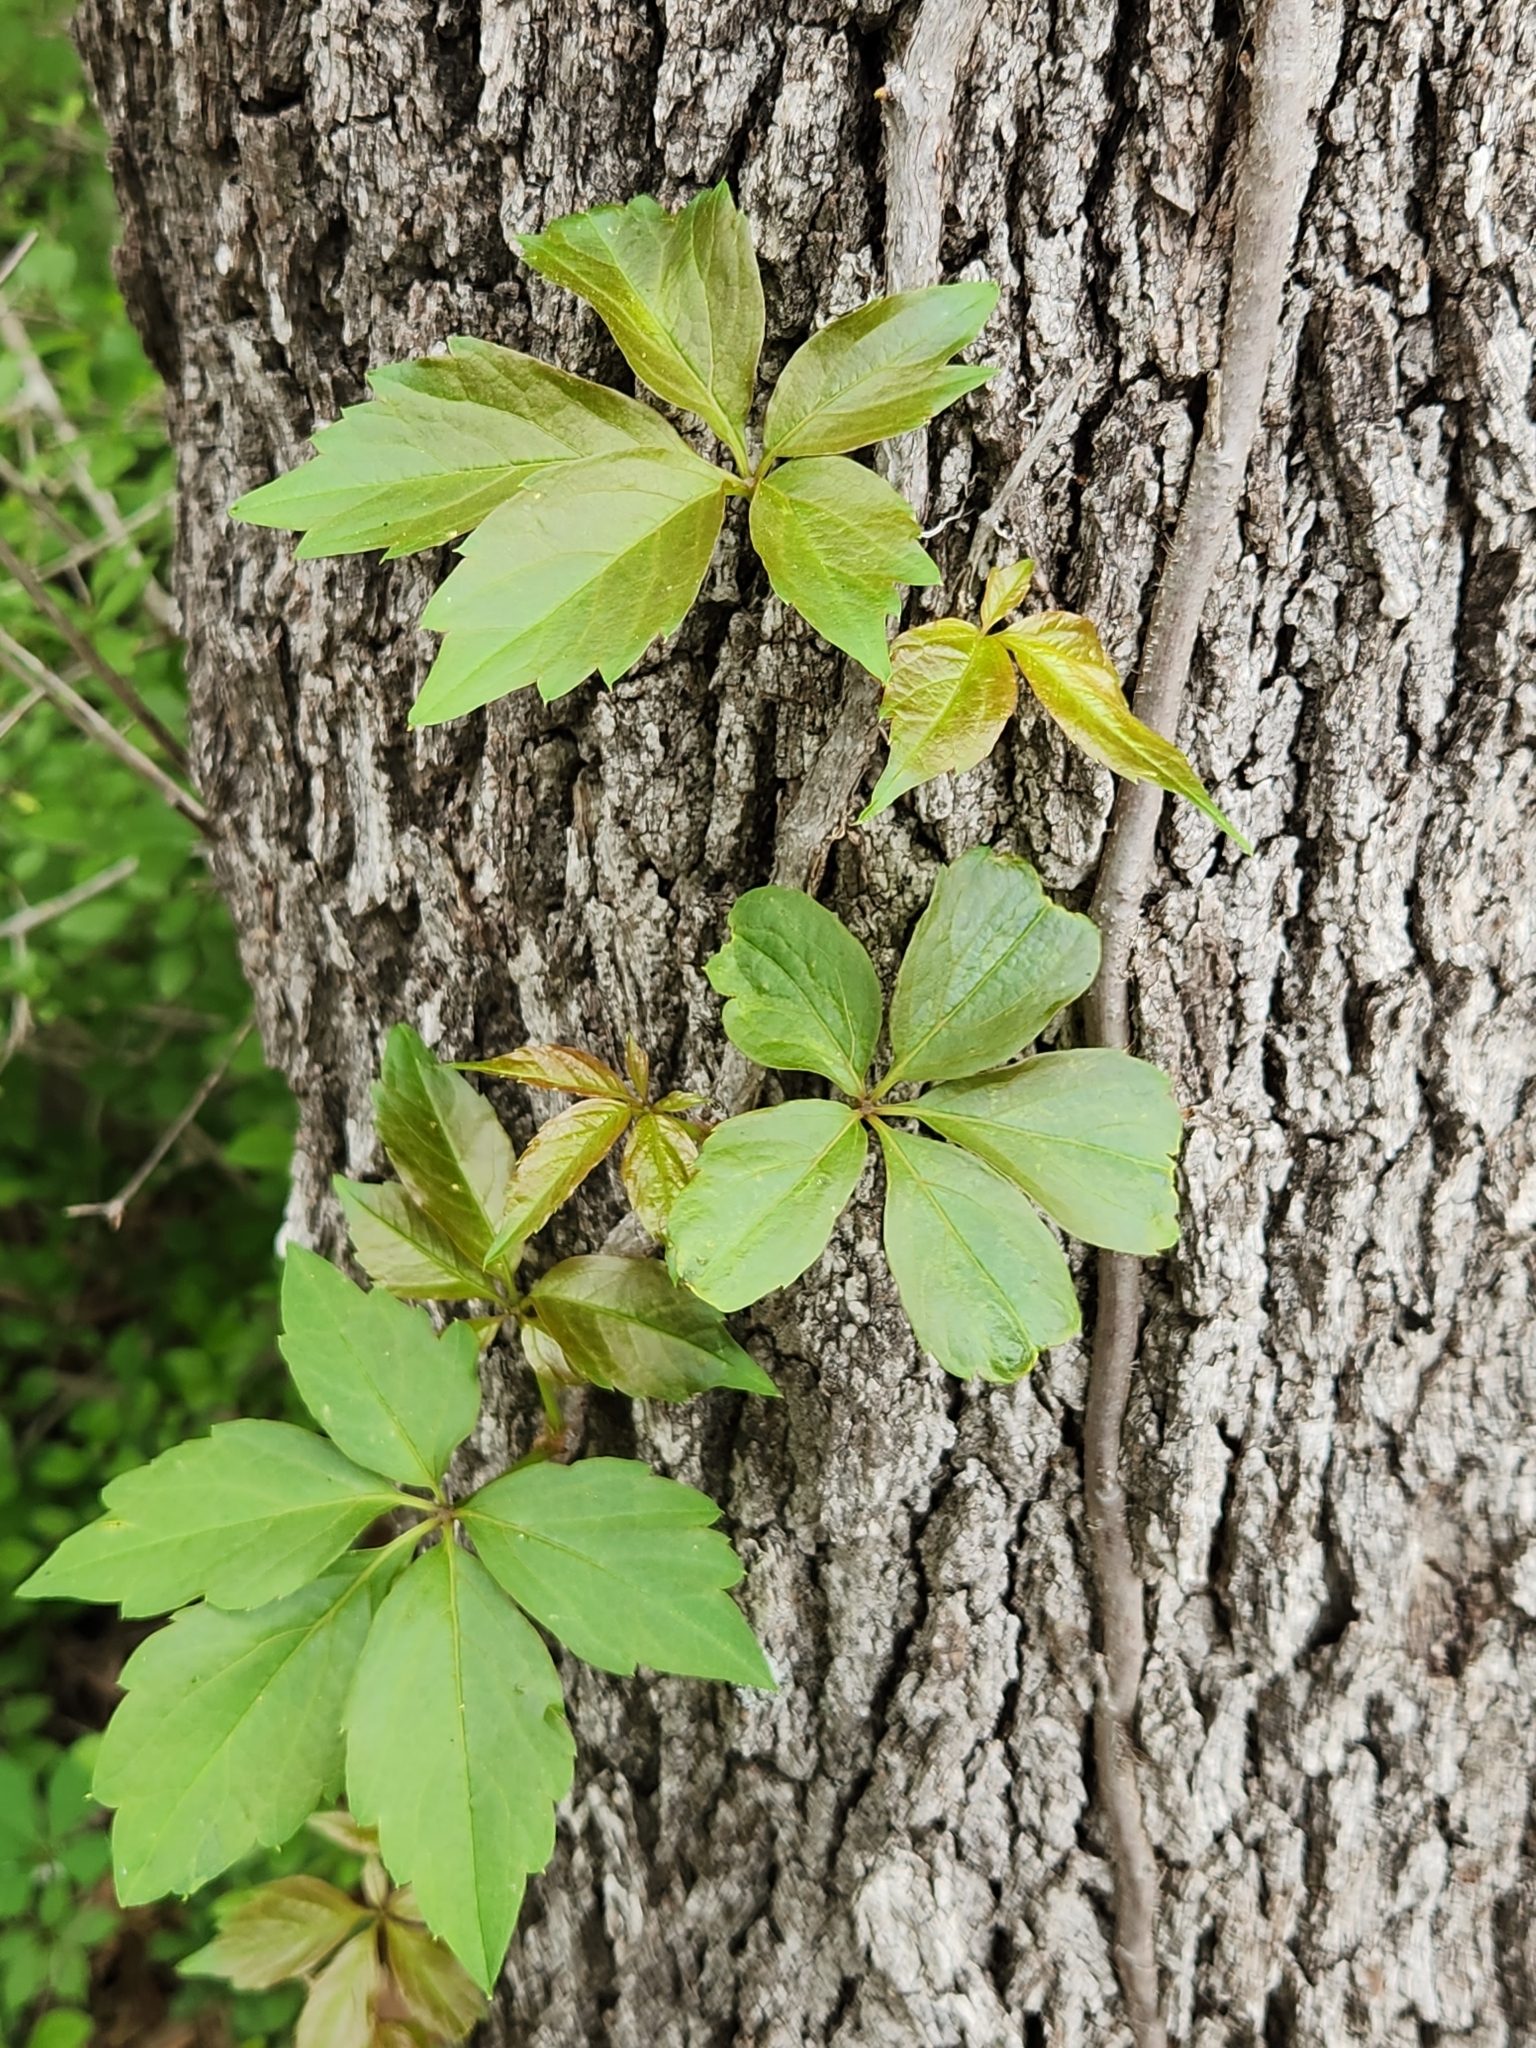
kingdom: Plantae
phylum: Tracheophyta
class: Magnoliopsida
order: Vitales
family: Vitaceae
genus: Parthenocissus
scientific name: Parthenocissus quinquefolia
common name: Virginia-creeper
